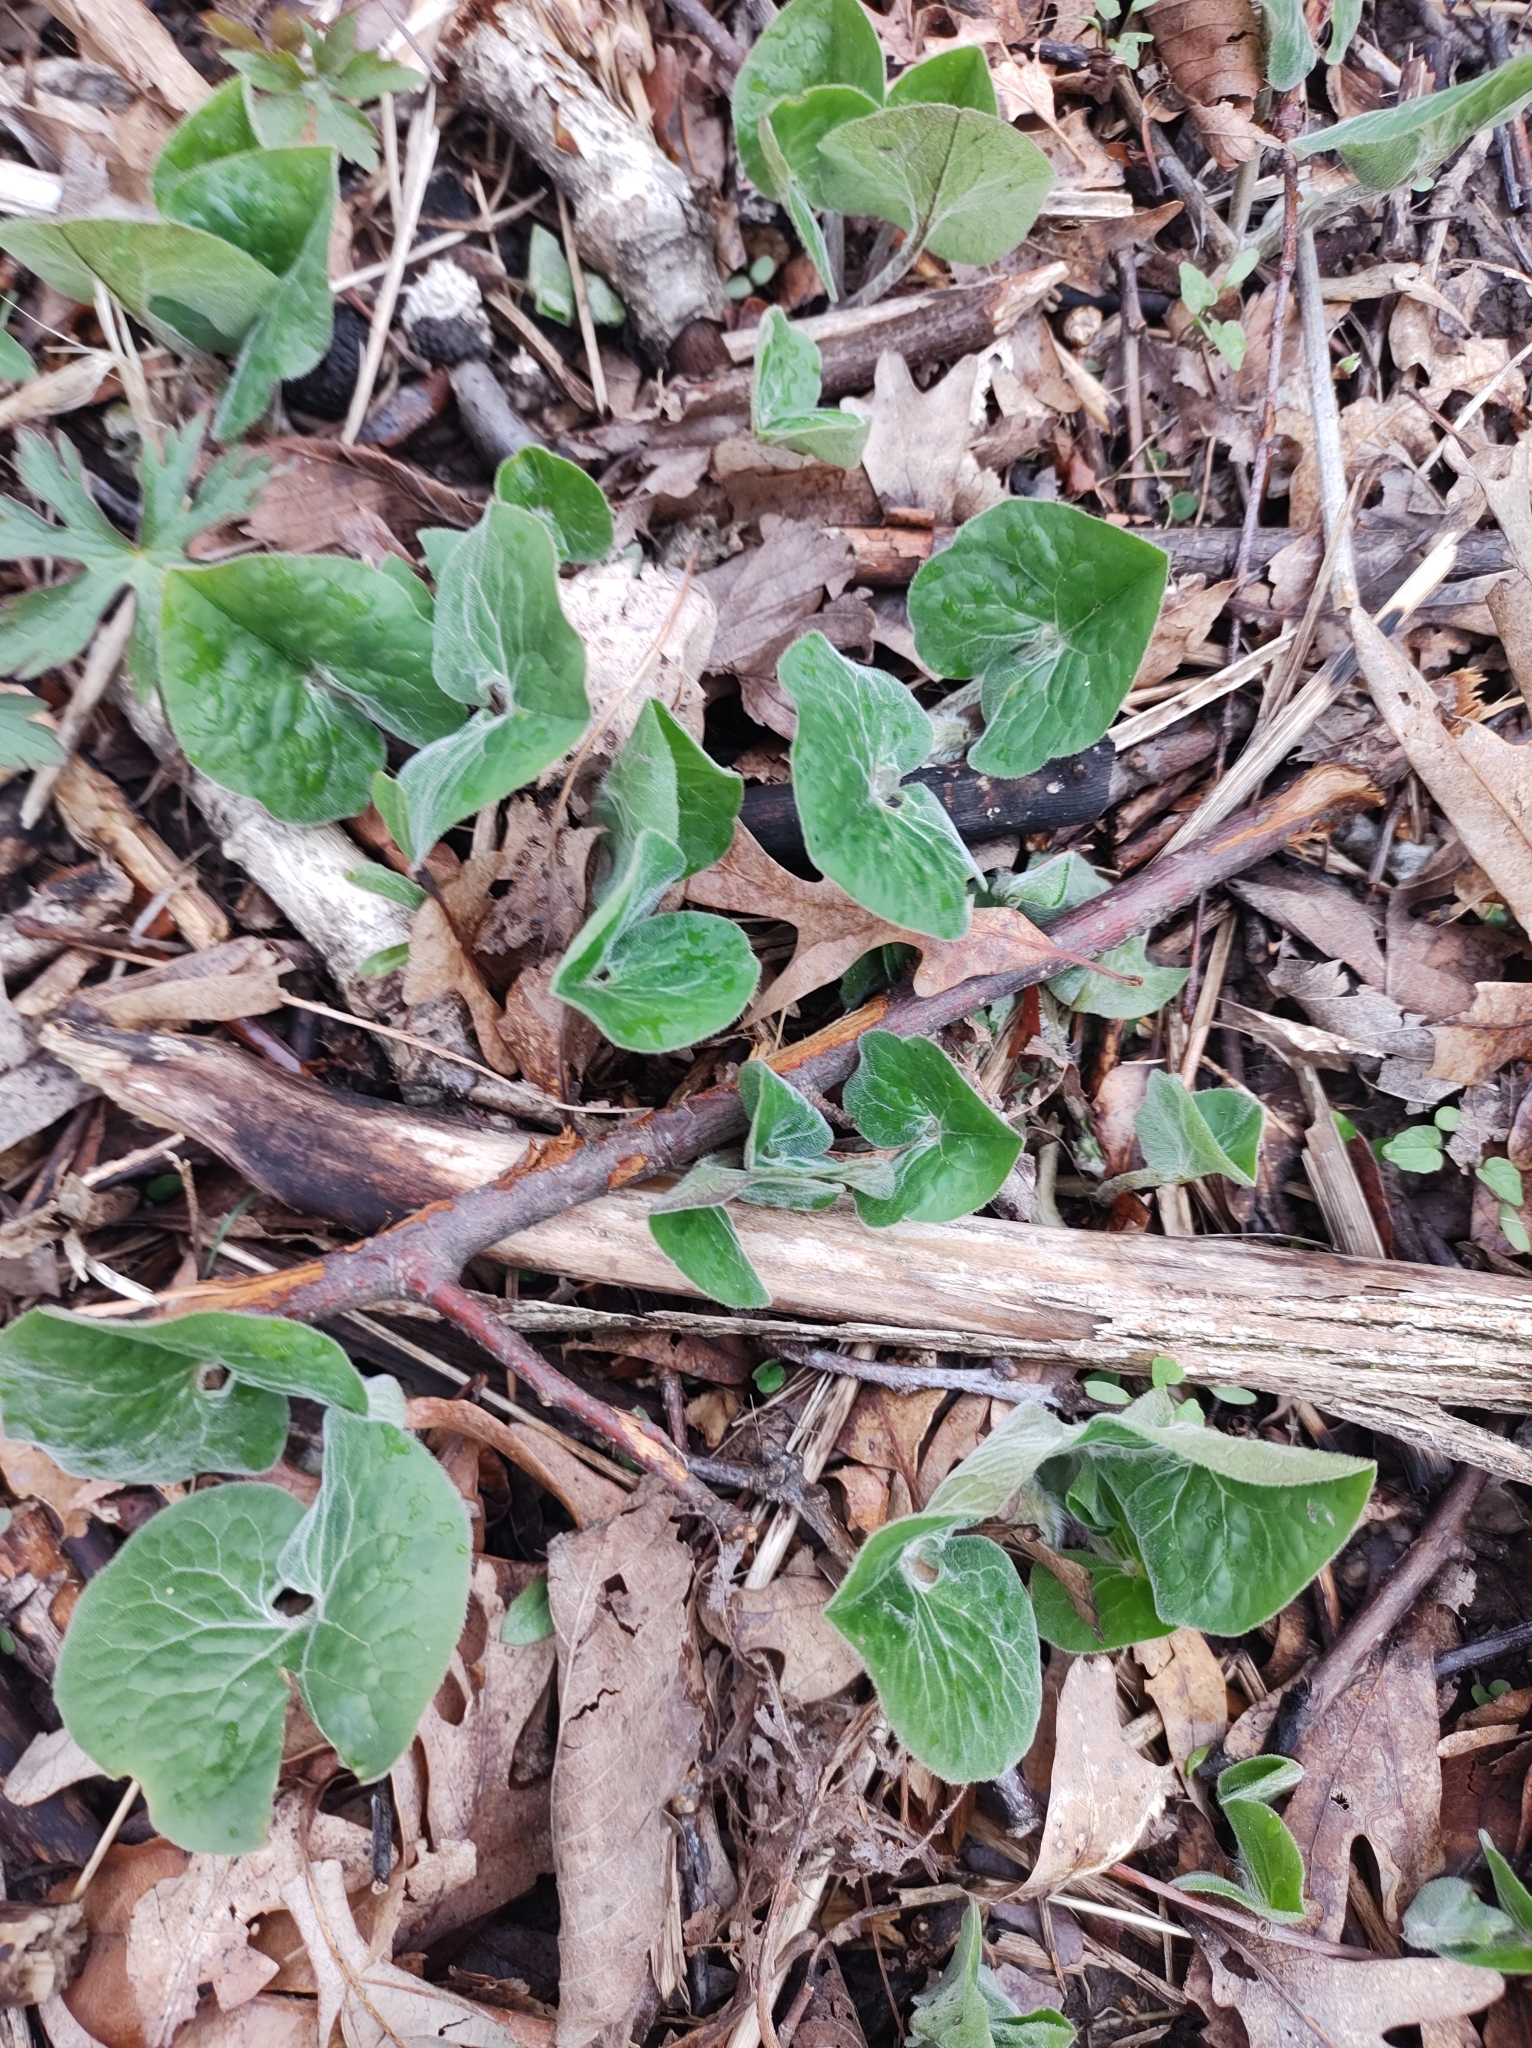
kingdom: Plantae
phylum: Tracheophyta
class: Magnoliopsida
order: Piperales
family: Aristolochiaceae
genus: Asarum
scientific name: Asarum canadense
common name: Wild ginger
